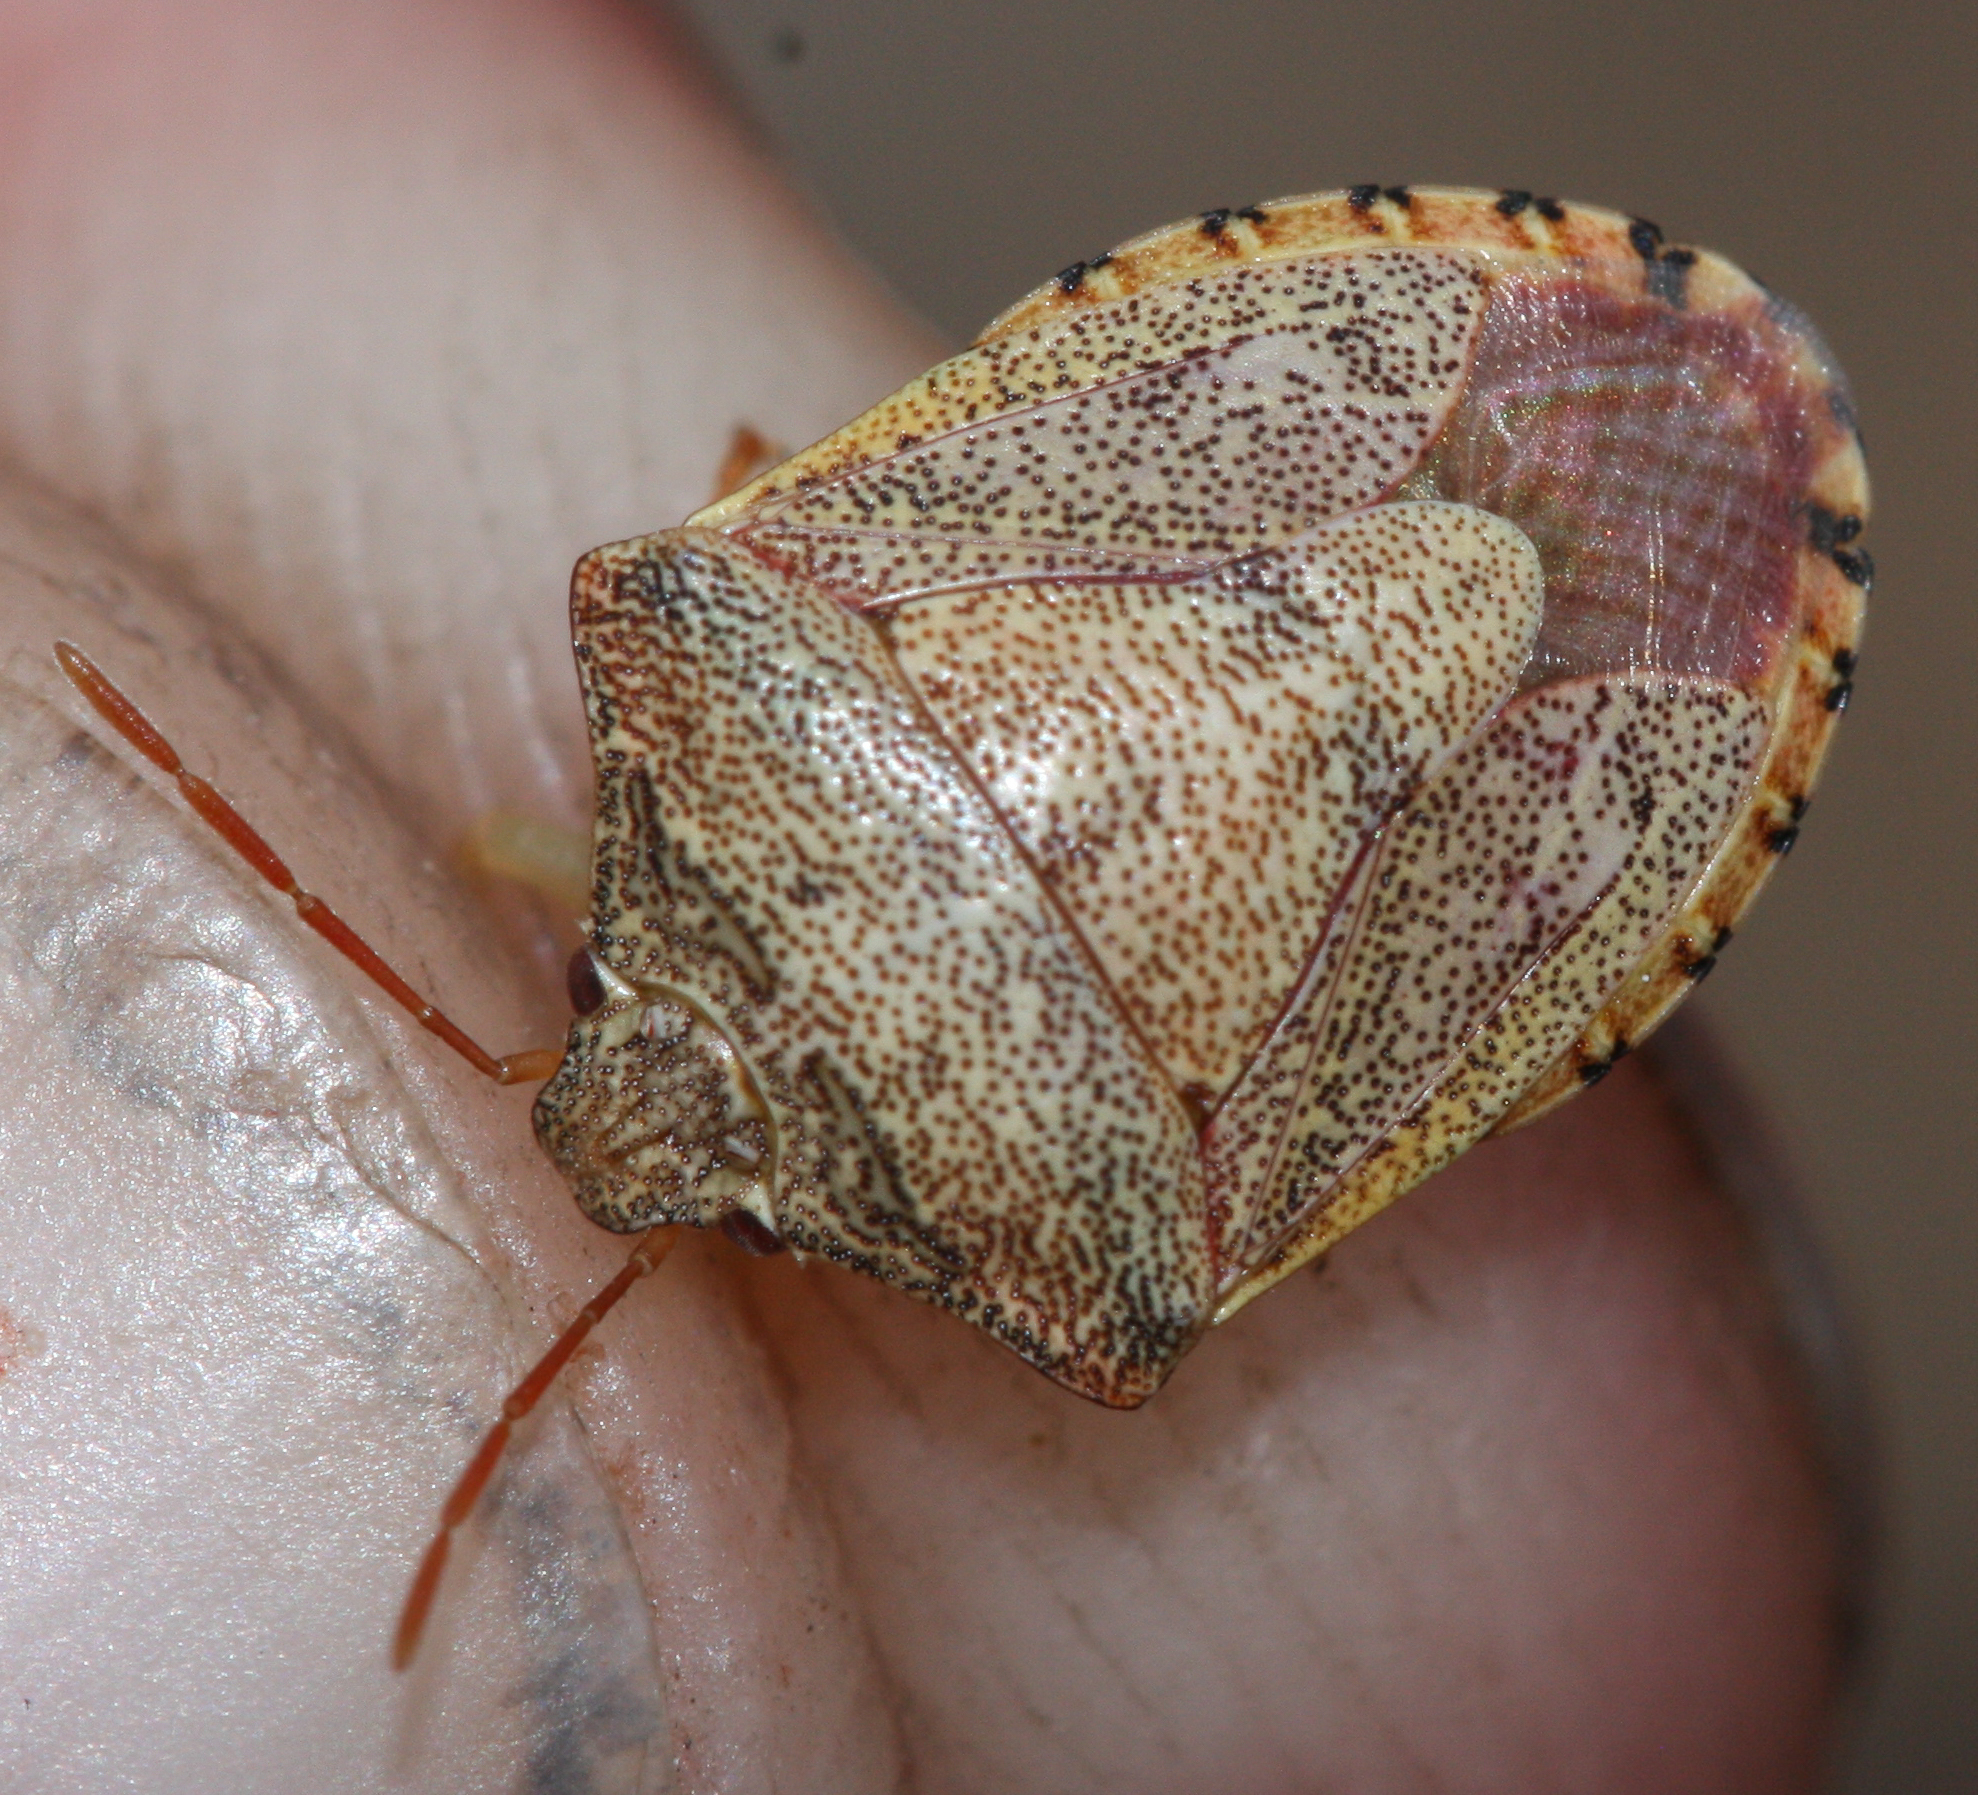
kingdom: Animalia
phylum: Arthropoda
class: Insecta
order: Hemiptera
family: Pentatomidae
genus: Dendrocoris
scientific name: Dendrocoris reticulatus
